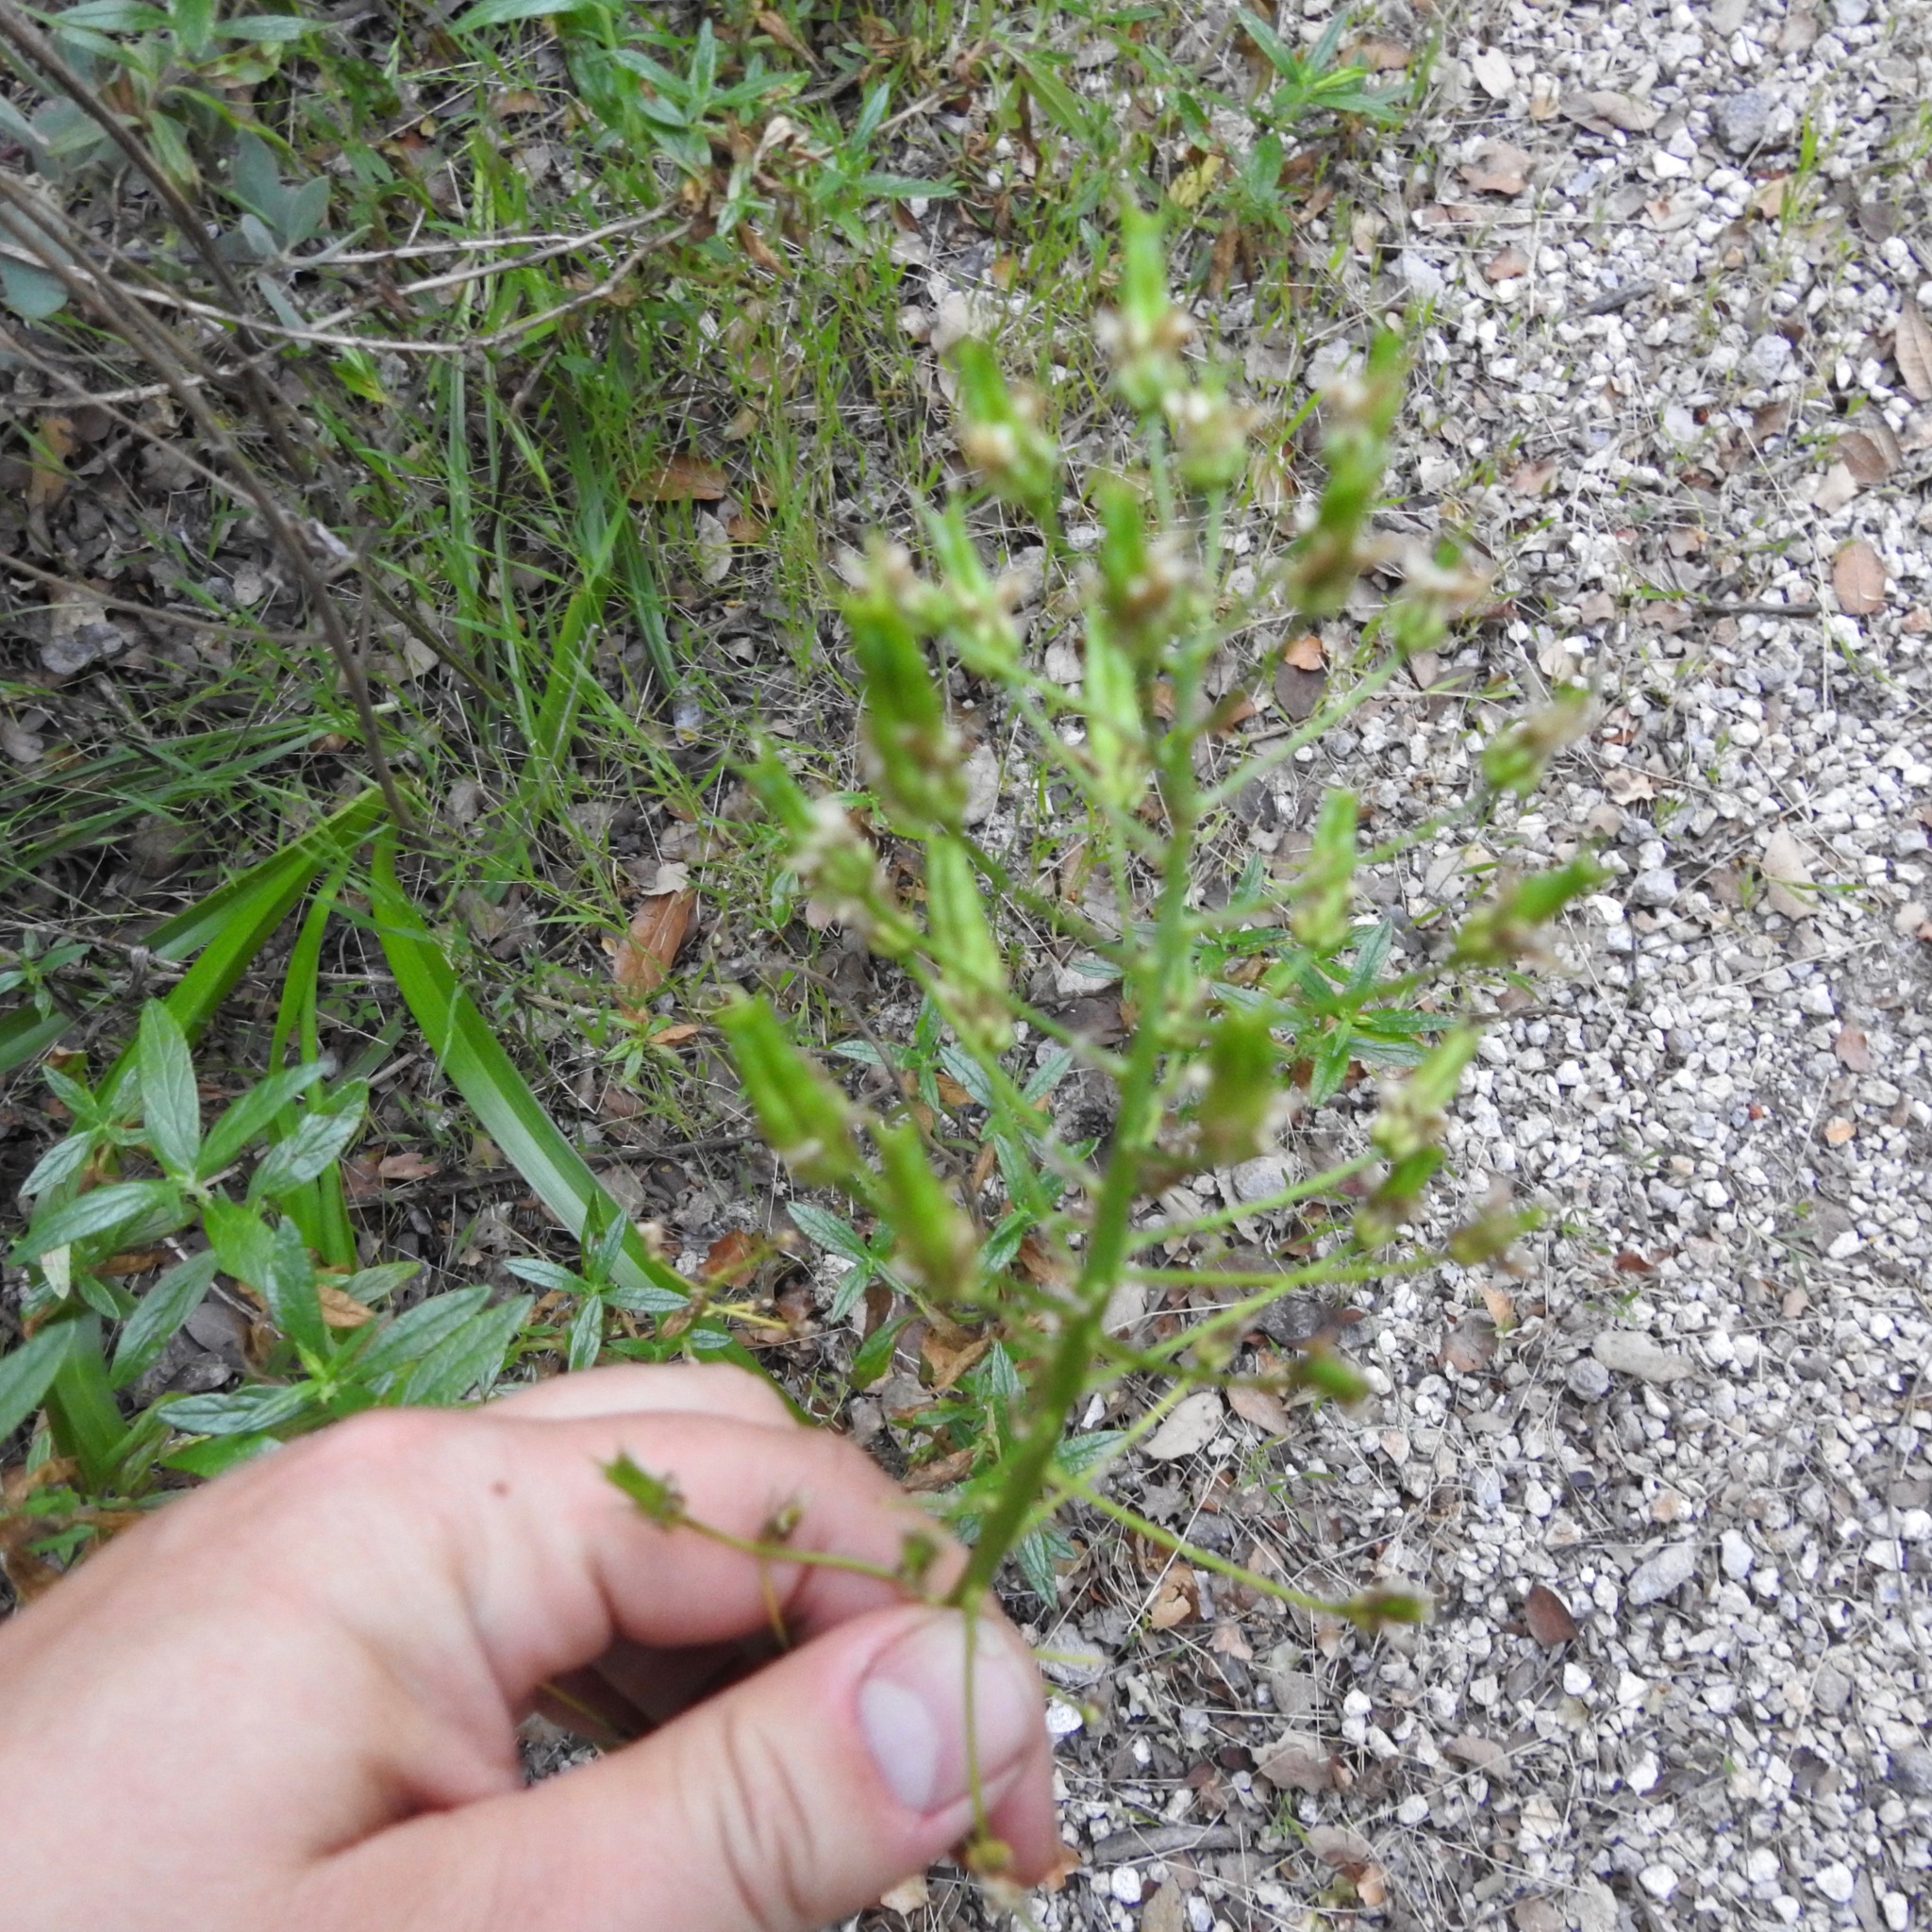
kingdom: Plantae
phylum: Tracheophyta
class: Liliopsida
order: Liliales
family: Melanthiaceae
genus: Toxicoscordion
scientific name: Toxicoscordion fremontii
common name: Fremont's death camas
